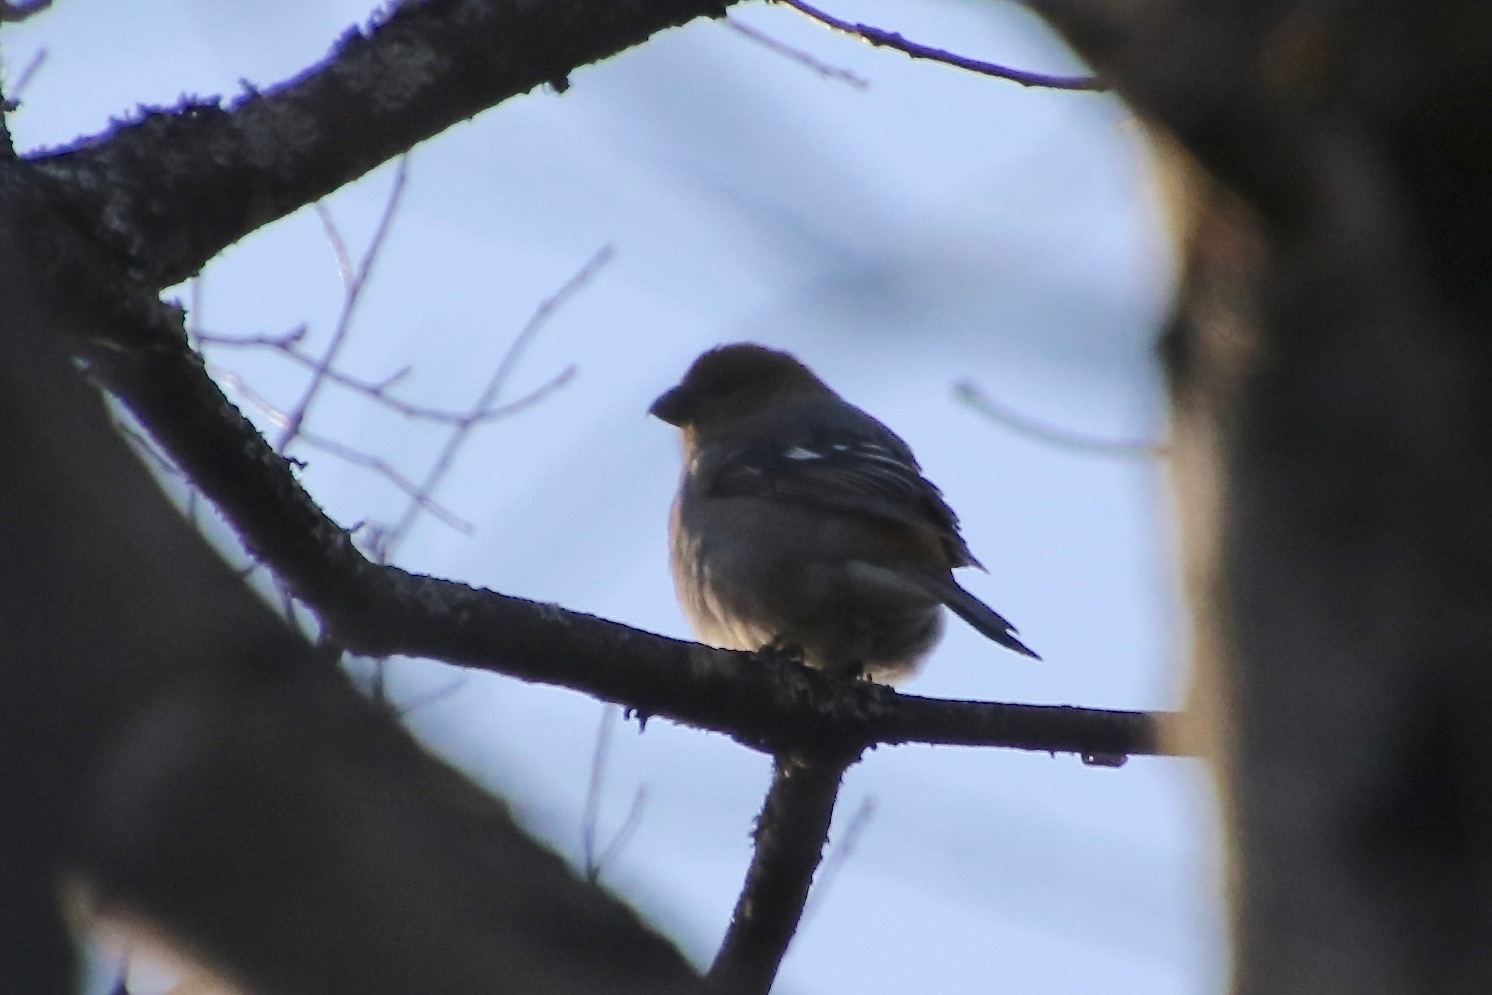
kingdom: Animalia
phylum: Chordata
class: Aves
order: Passeriformes
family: Fringillidae
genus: Pinicola
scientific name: Pinicola enucleator
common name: Pine grosbeak
